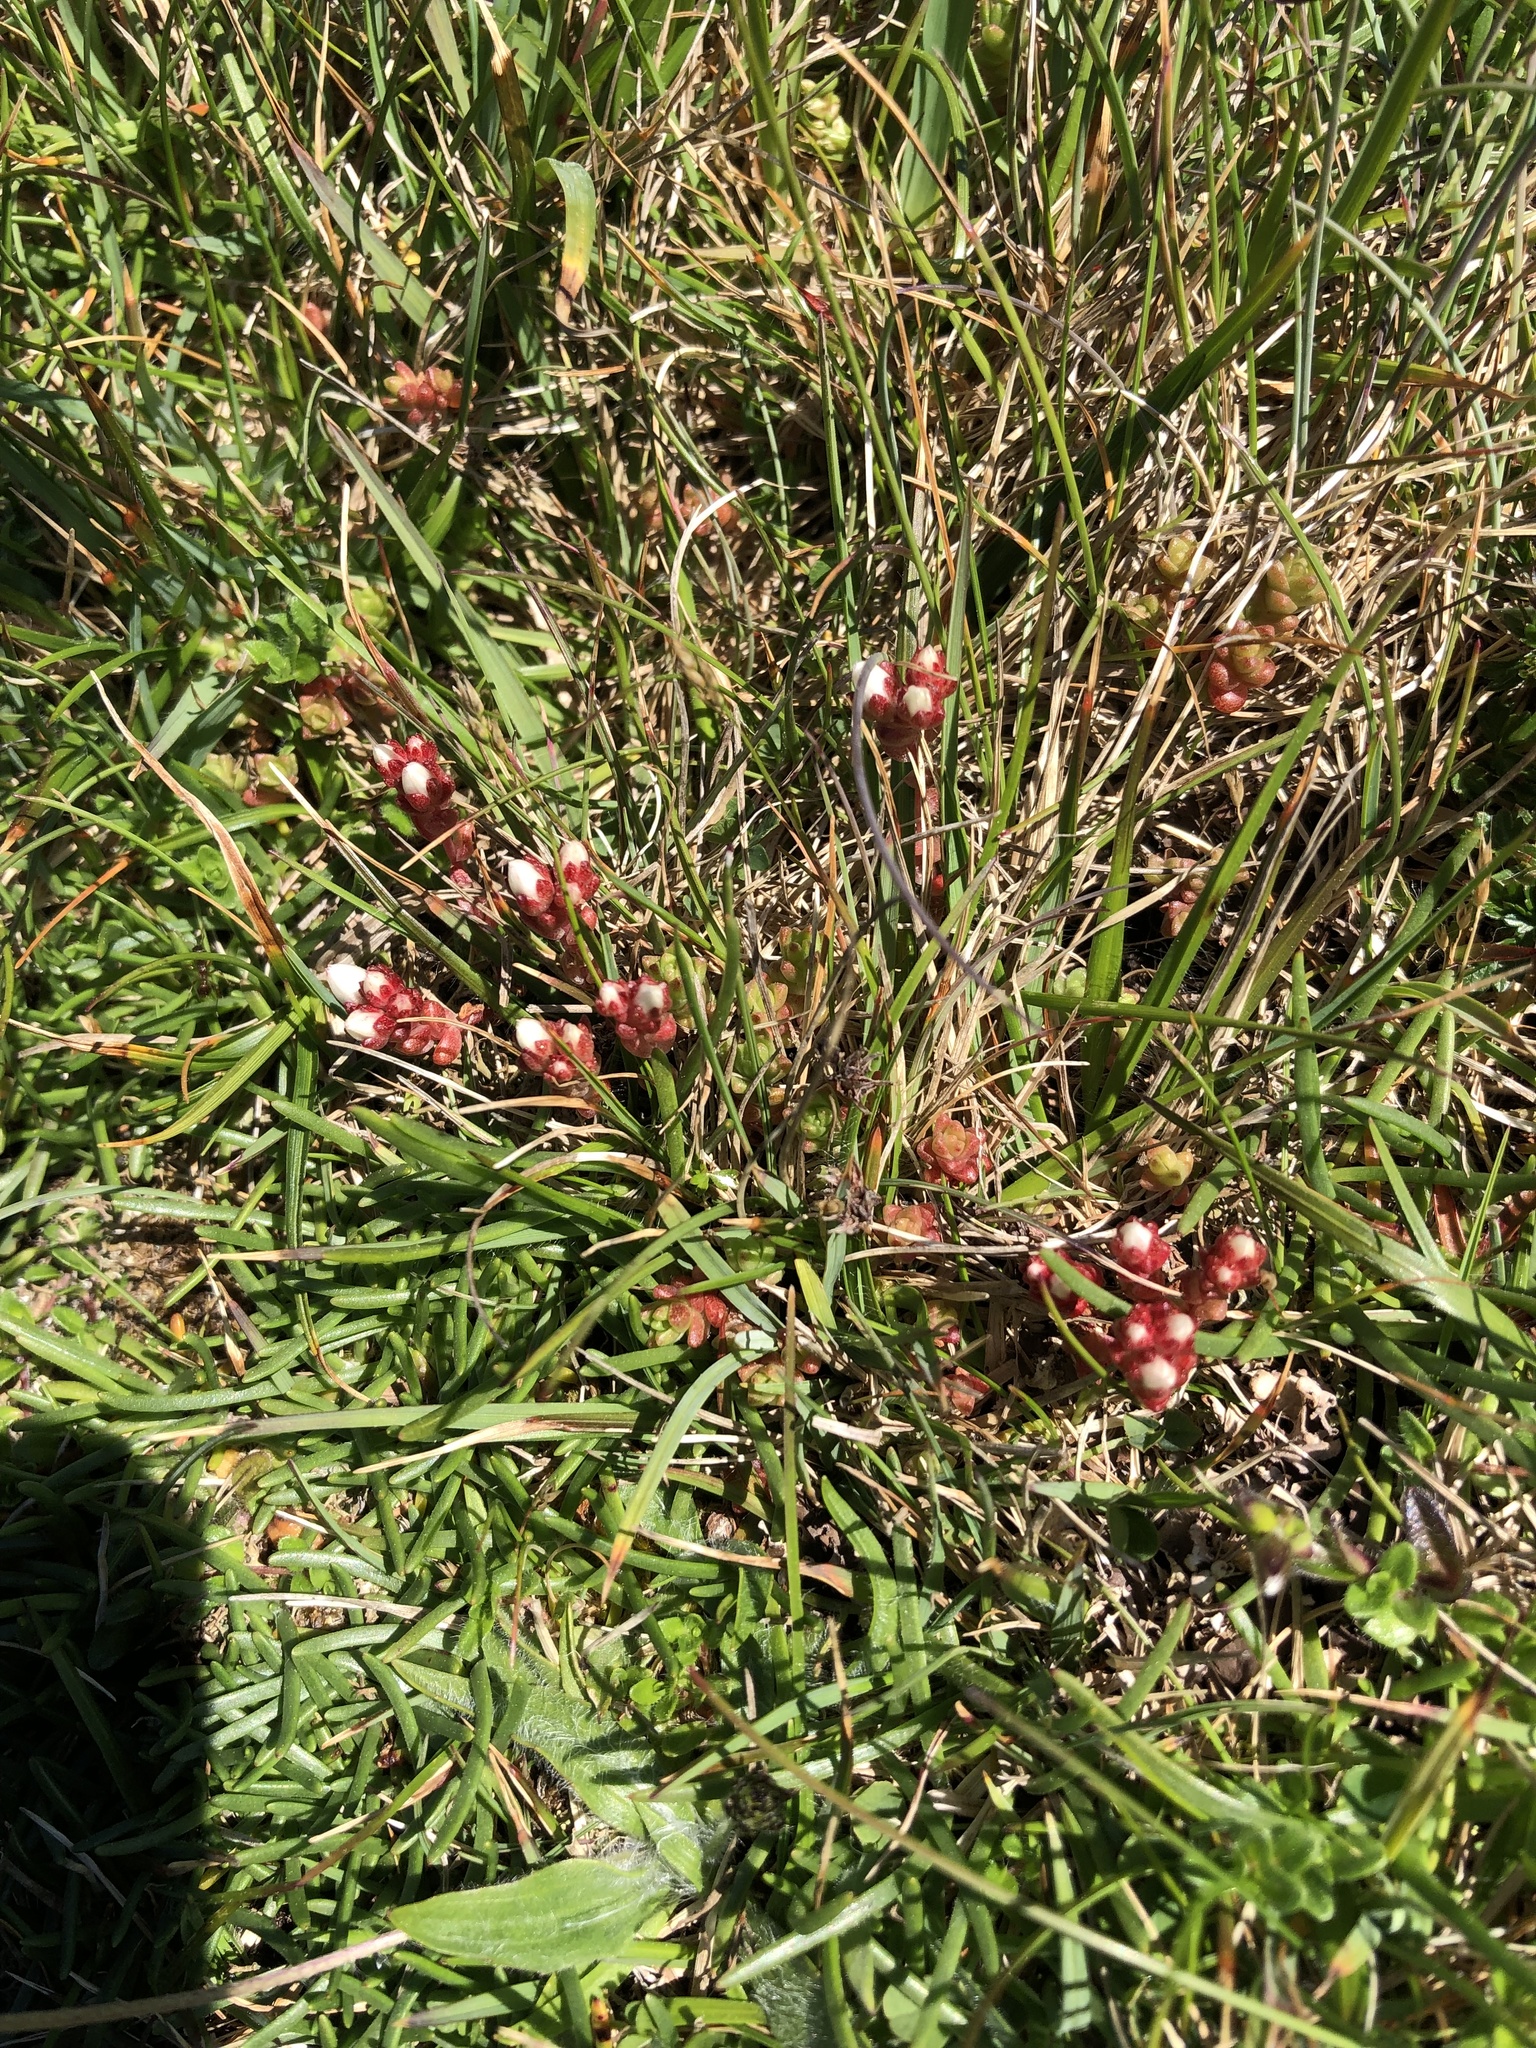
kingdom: Plantae
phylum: Tracheophyta
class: Magnoliopsida
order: Saxifragales
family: Crassulaceae
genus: Sedum
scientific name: Sedum anglicum
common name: English stonecrop
